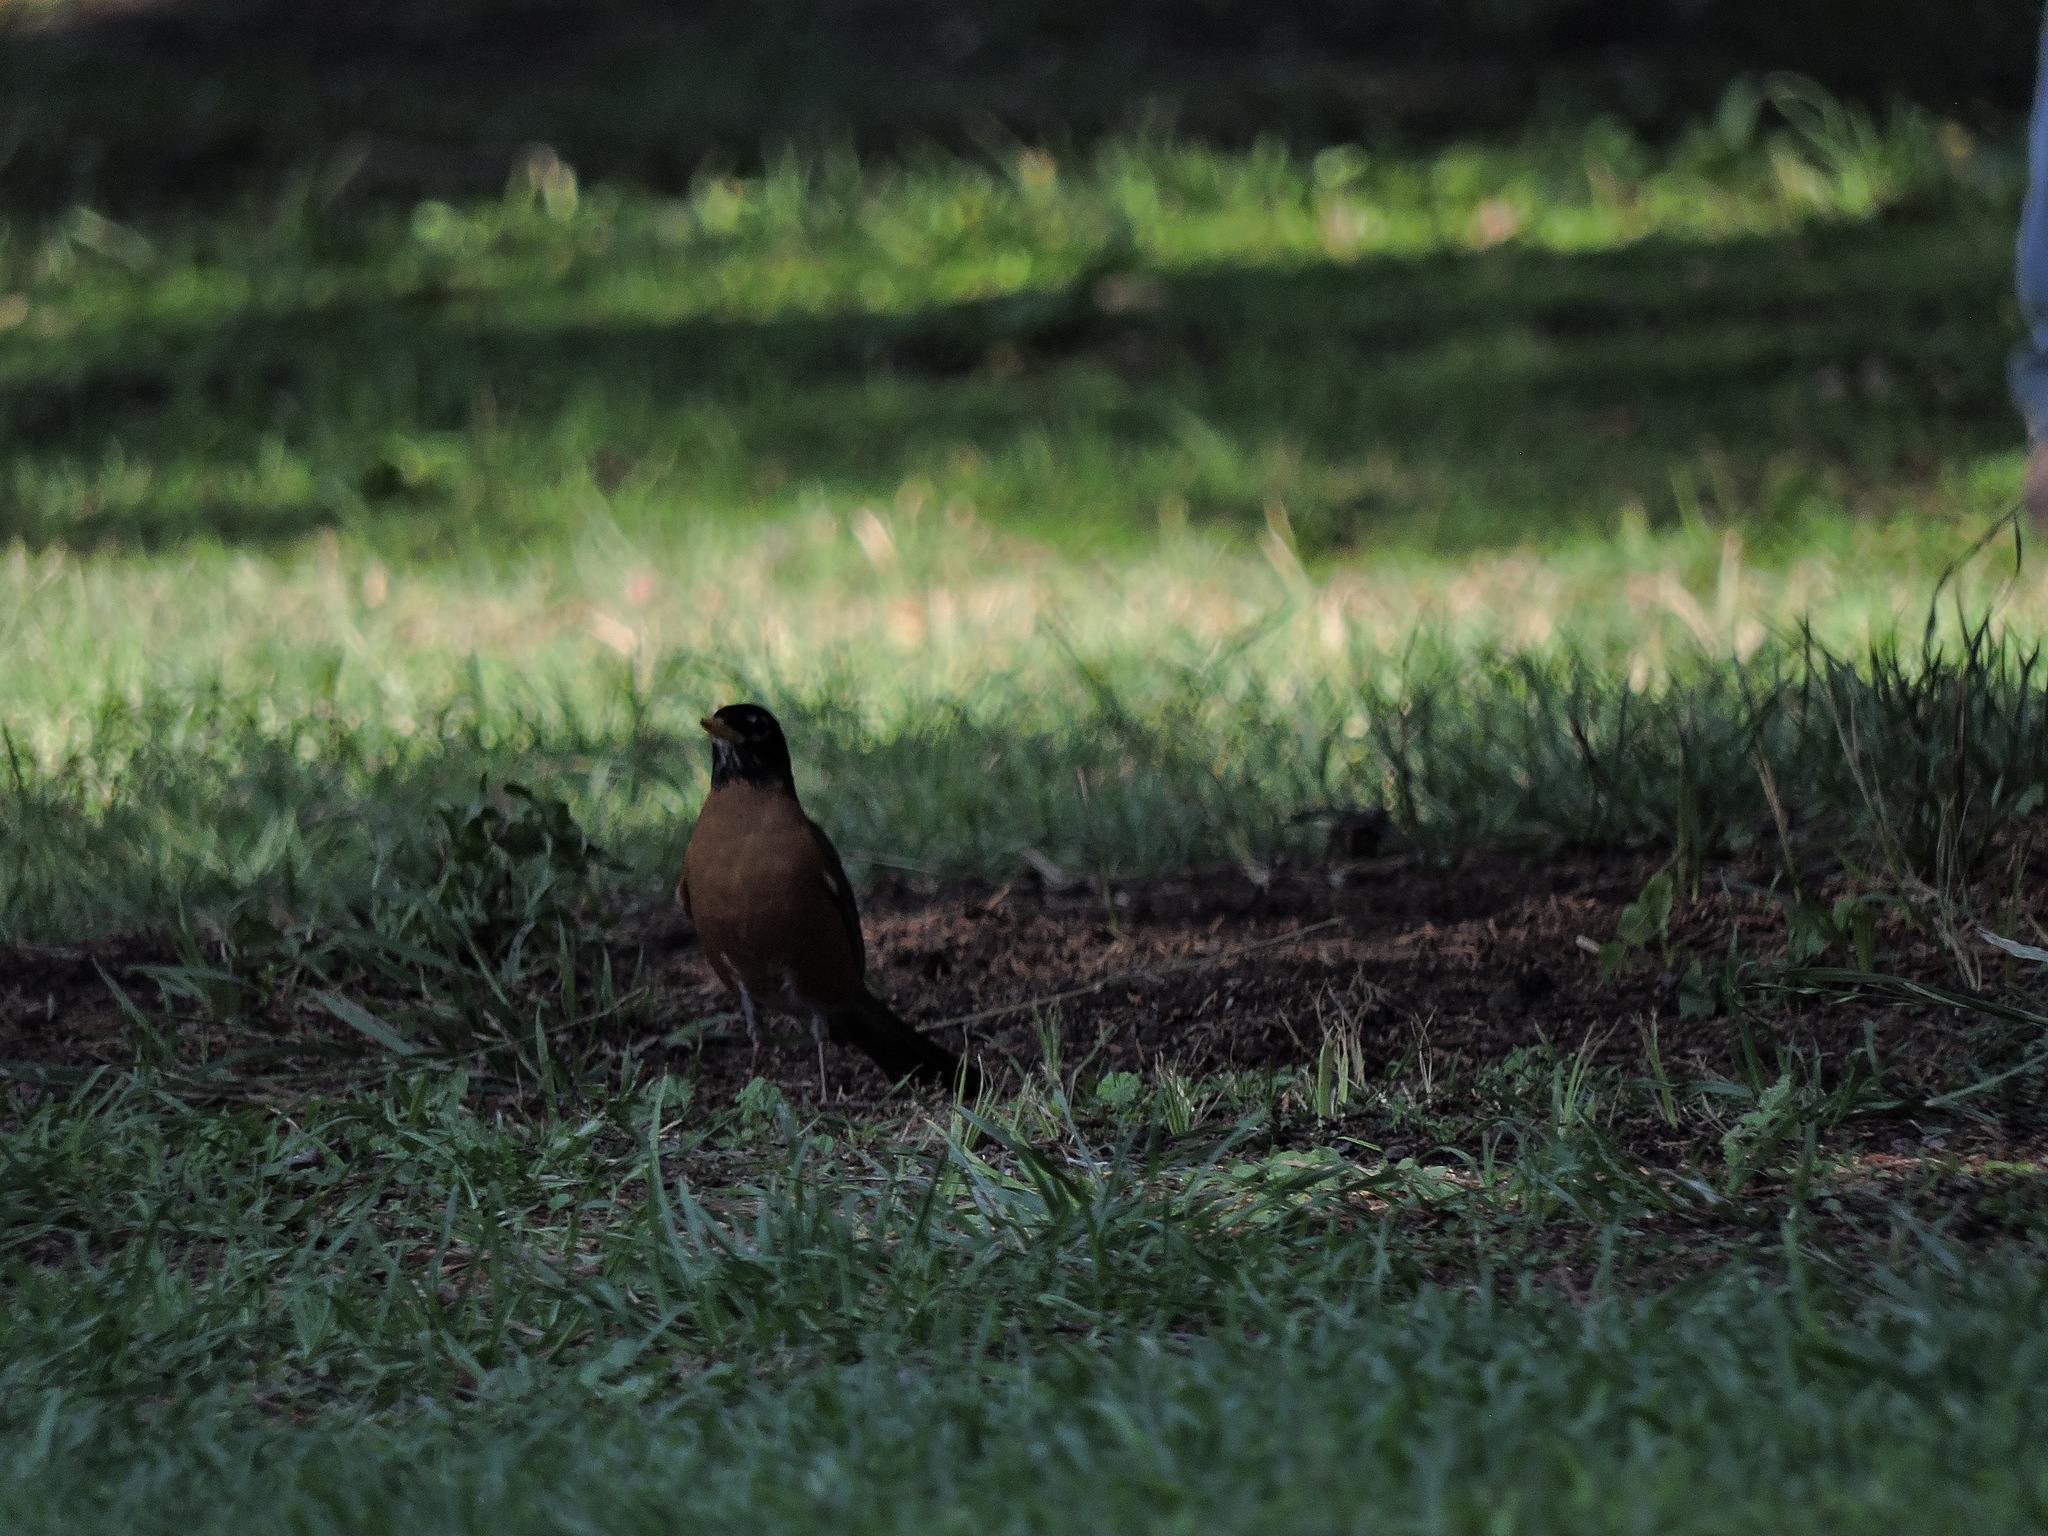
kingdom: Animalia
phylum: Chordata
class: Aves
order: Passeriformes
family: Turdidae
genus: Turdus
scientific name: Turdus migratorius
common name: American robin
